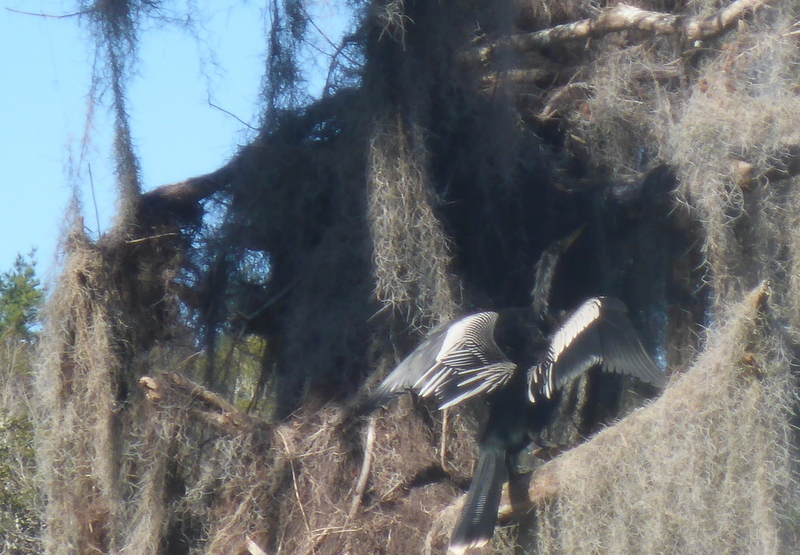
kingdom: Animalia
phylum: Chordata
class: Aves
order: Suliformes
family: Anhingidae
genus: Anhinga
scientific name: Anhinga anhinga
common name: Anhinga
